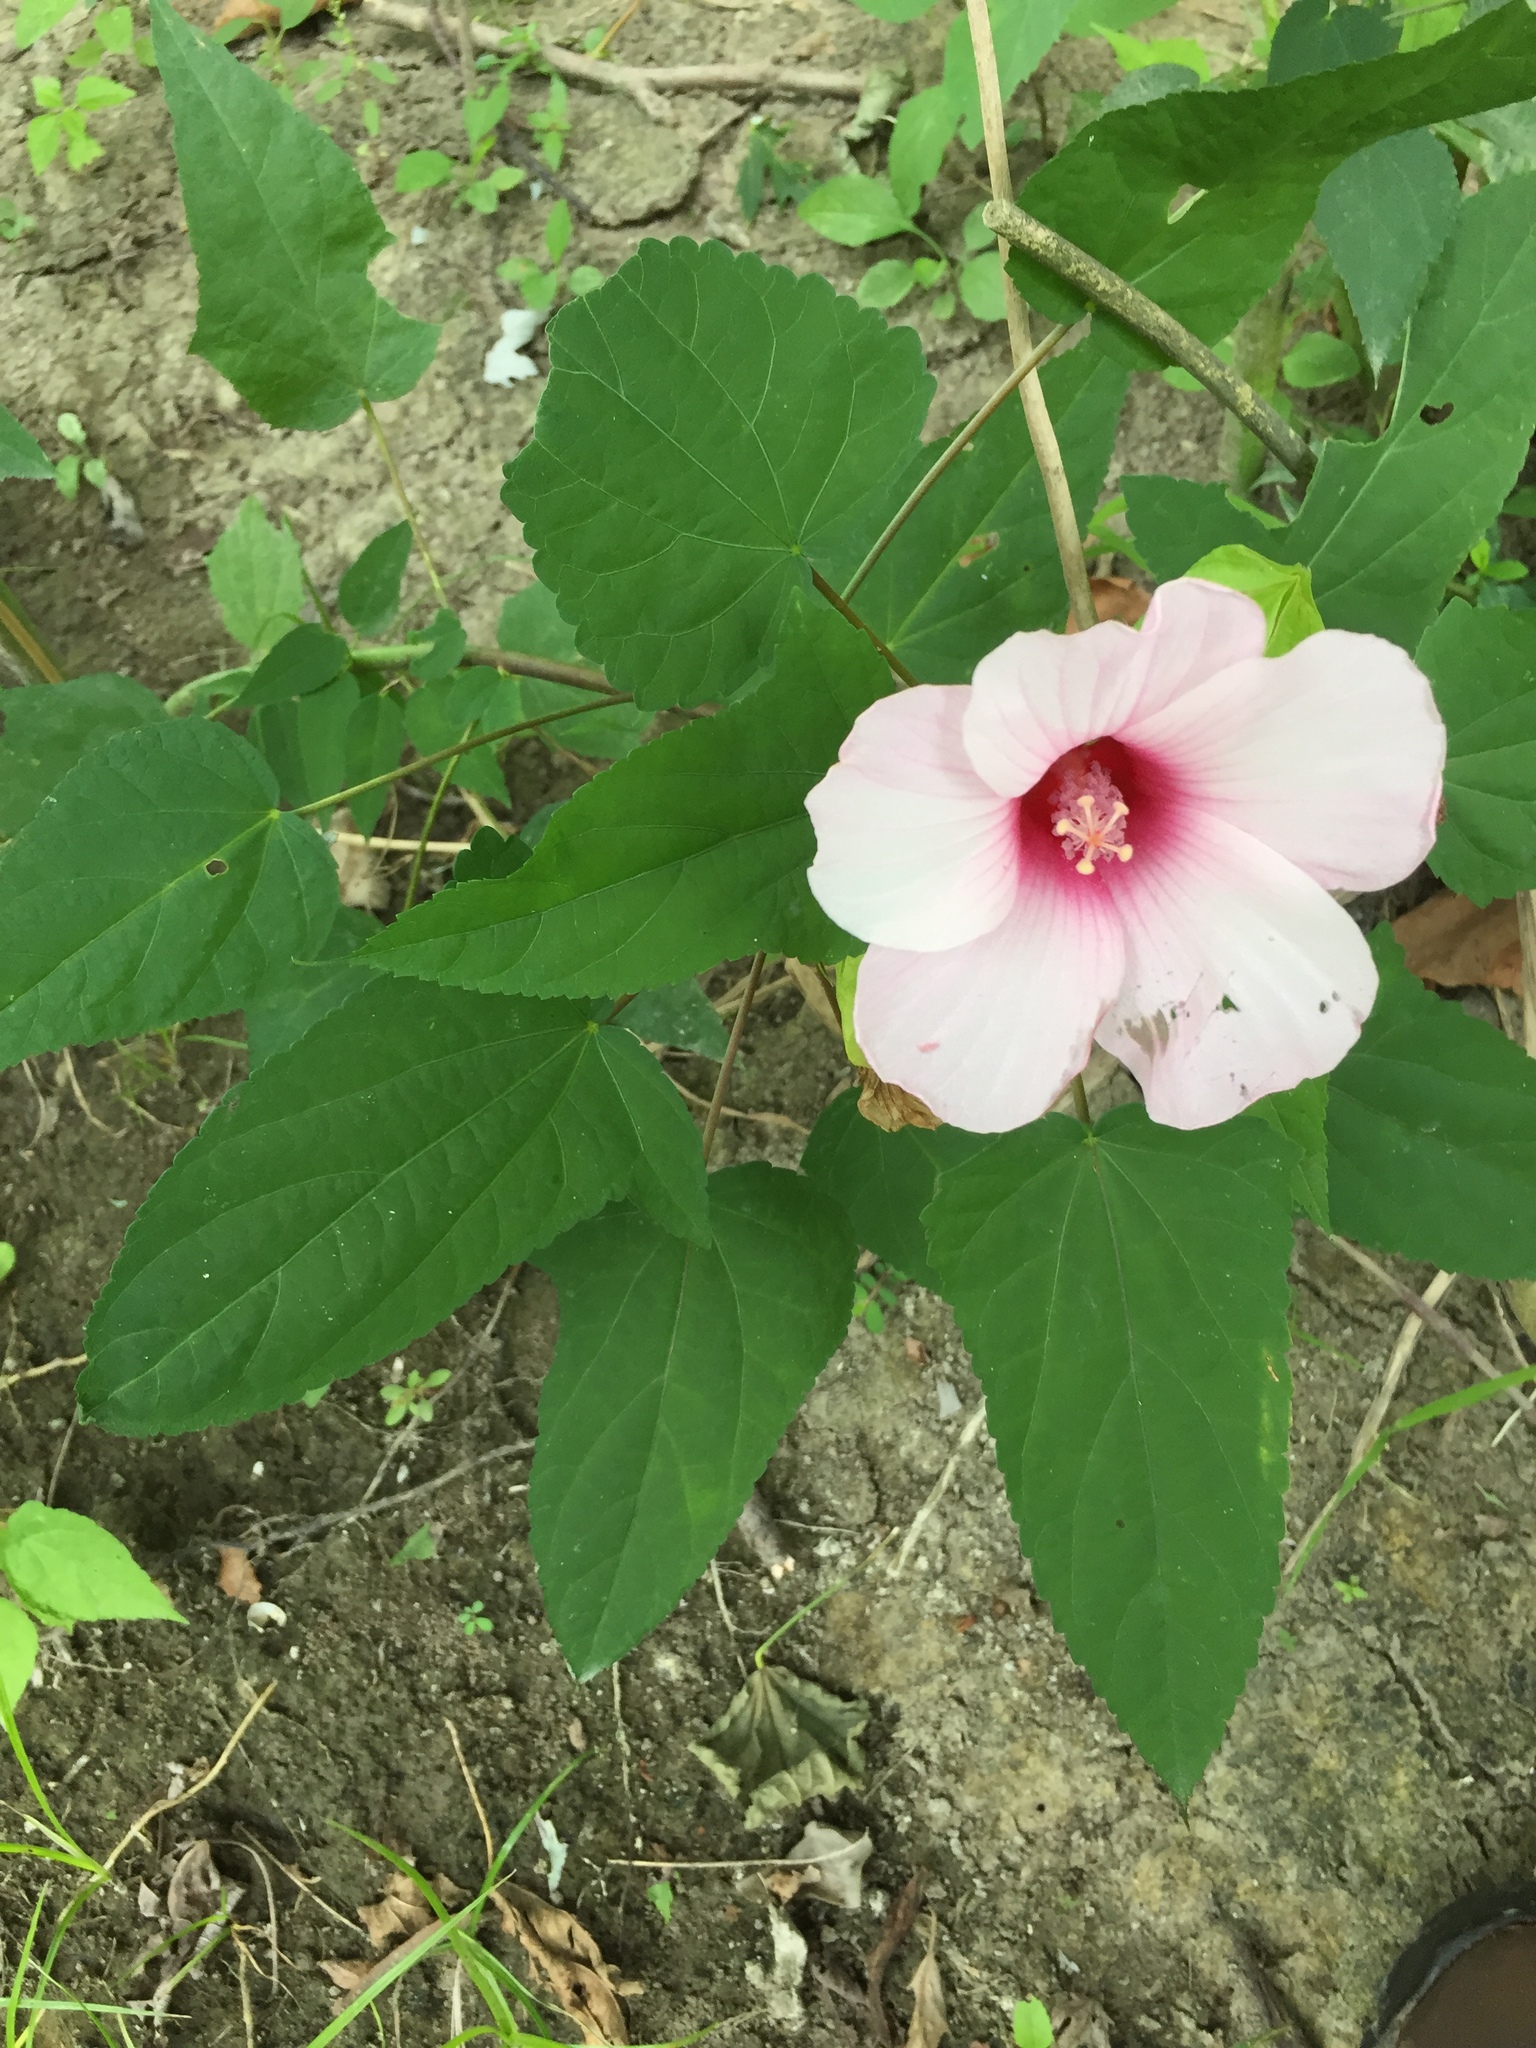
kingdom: Plantae
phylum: Tracheophyta
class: Magnoliopsida
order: Malvales
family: Malvaceae
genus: Hibiscus
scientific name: Hibiscus laevis
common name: Scarlet rose-mallow
